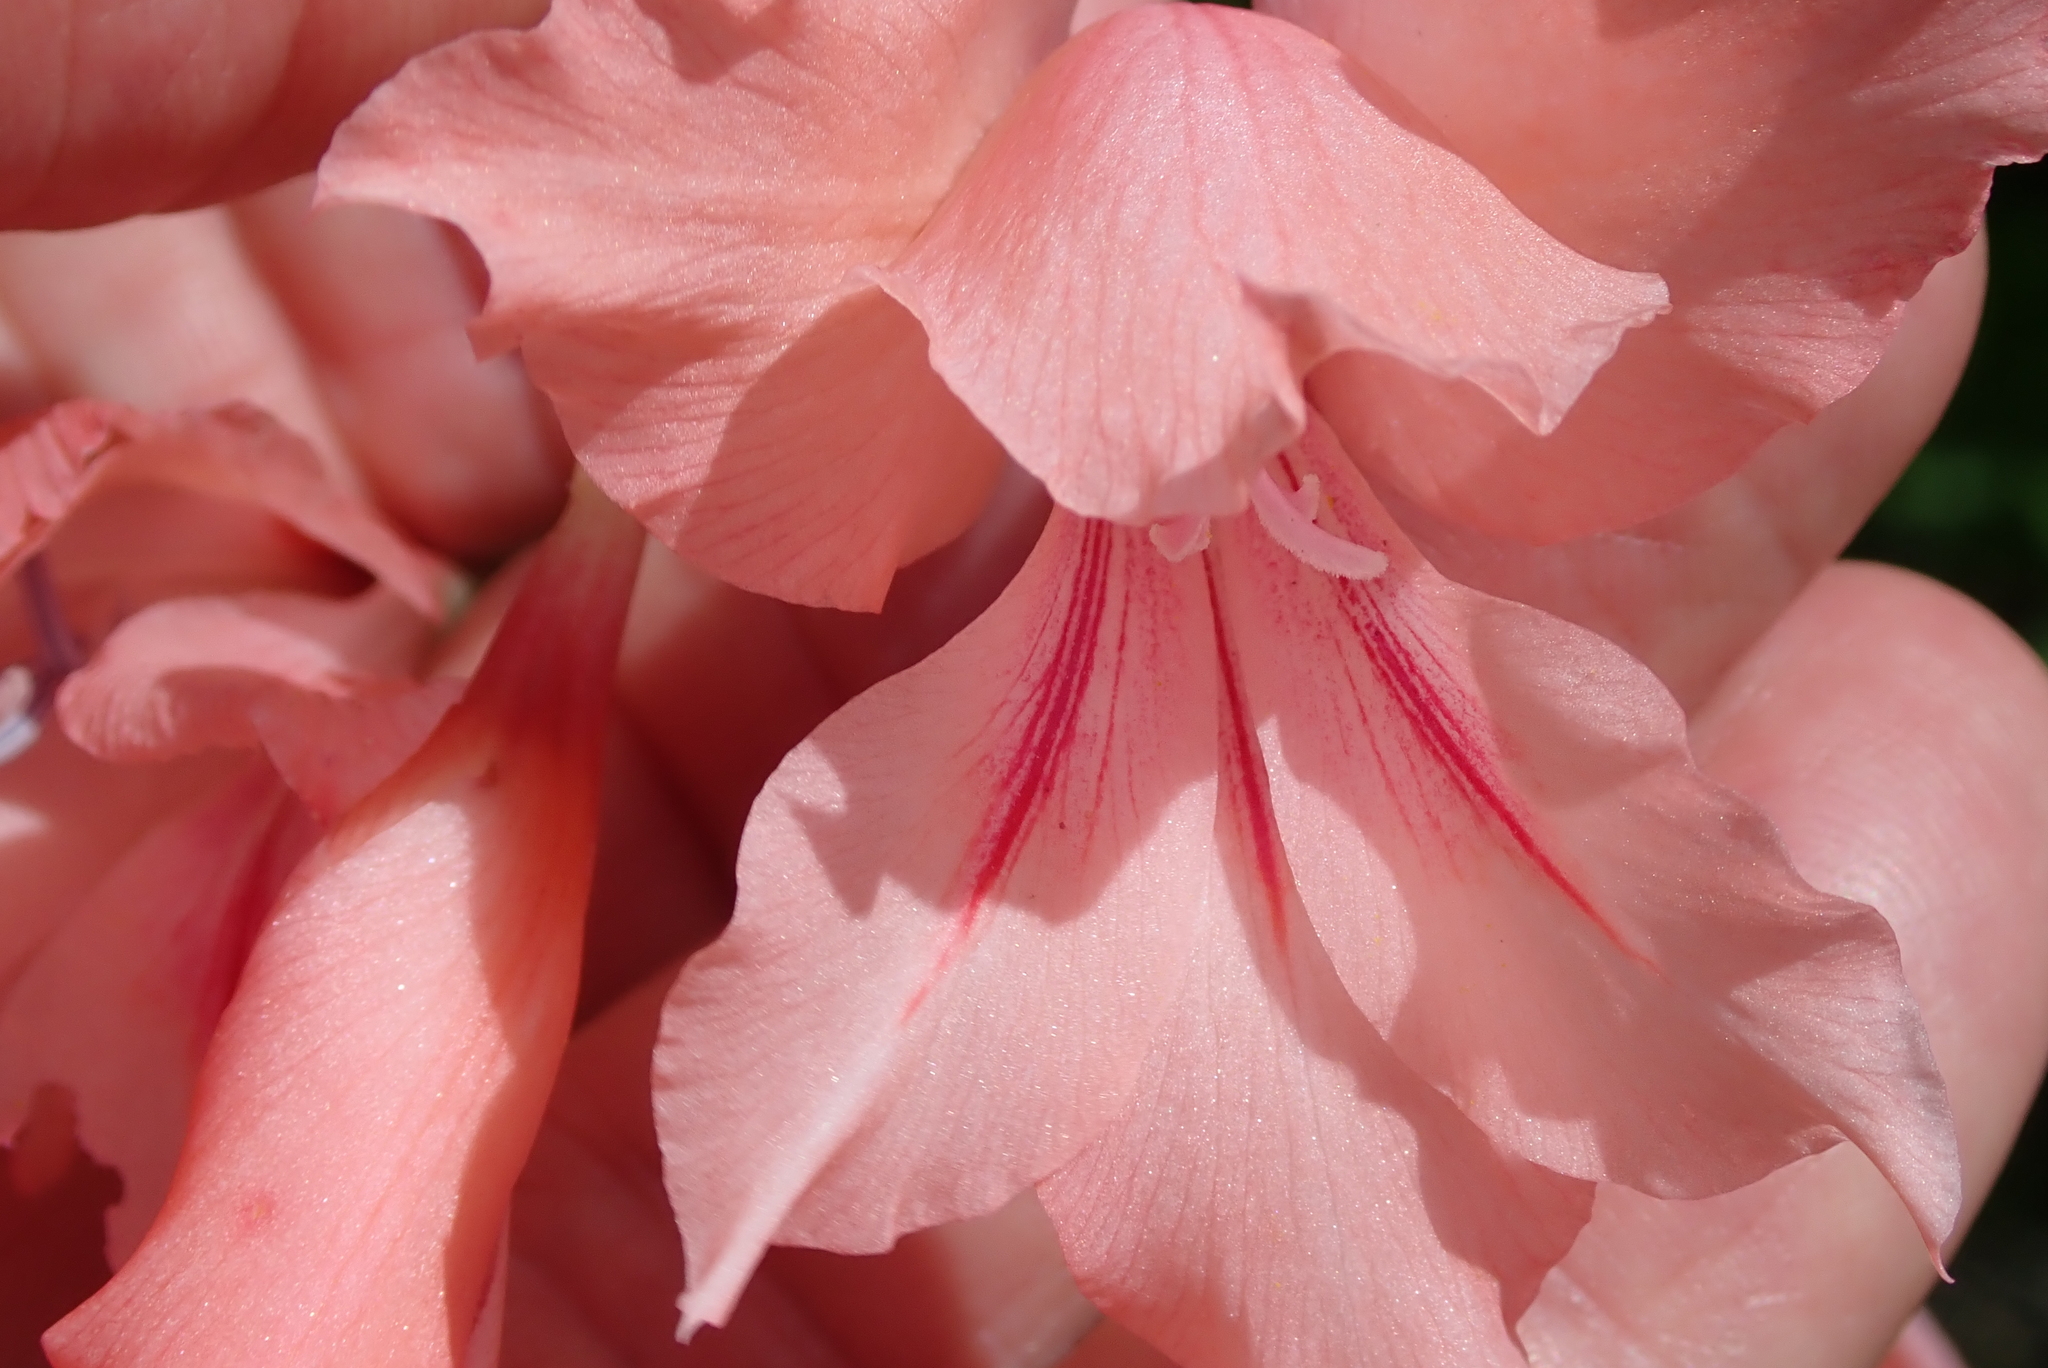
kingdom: Plantae
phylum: Tracheophyta
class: Liliopsida
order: Asparagales
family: Iridaceae
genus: Gladiolus
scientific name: Gladiolus oppositiflorus
